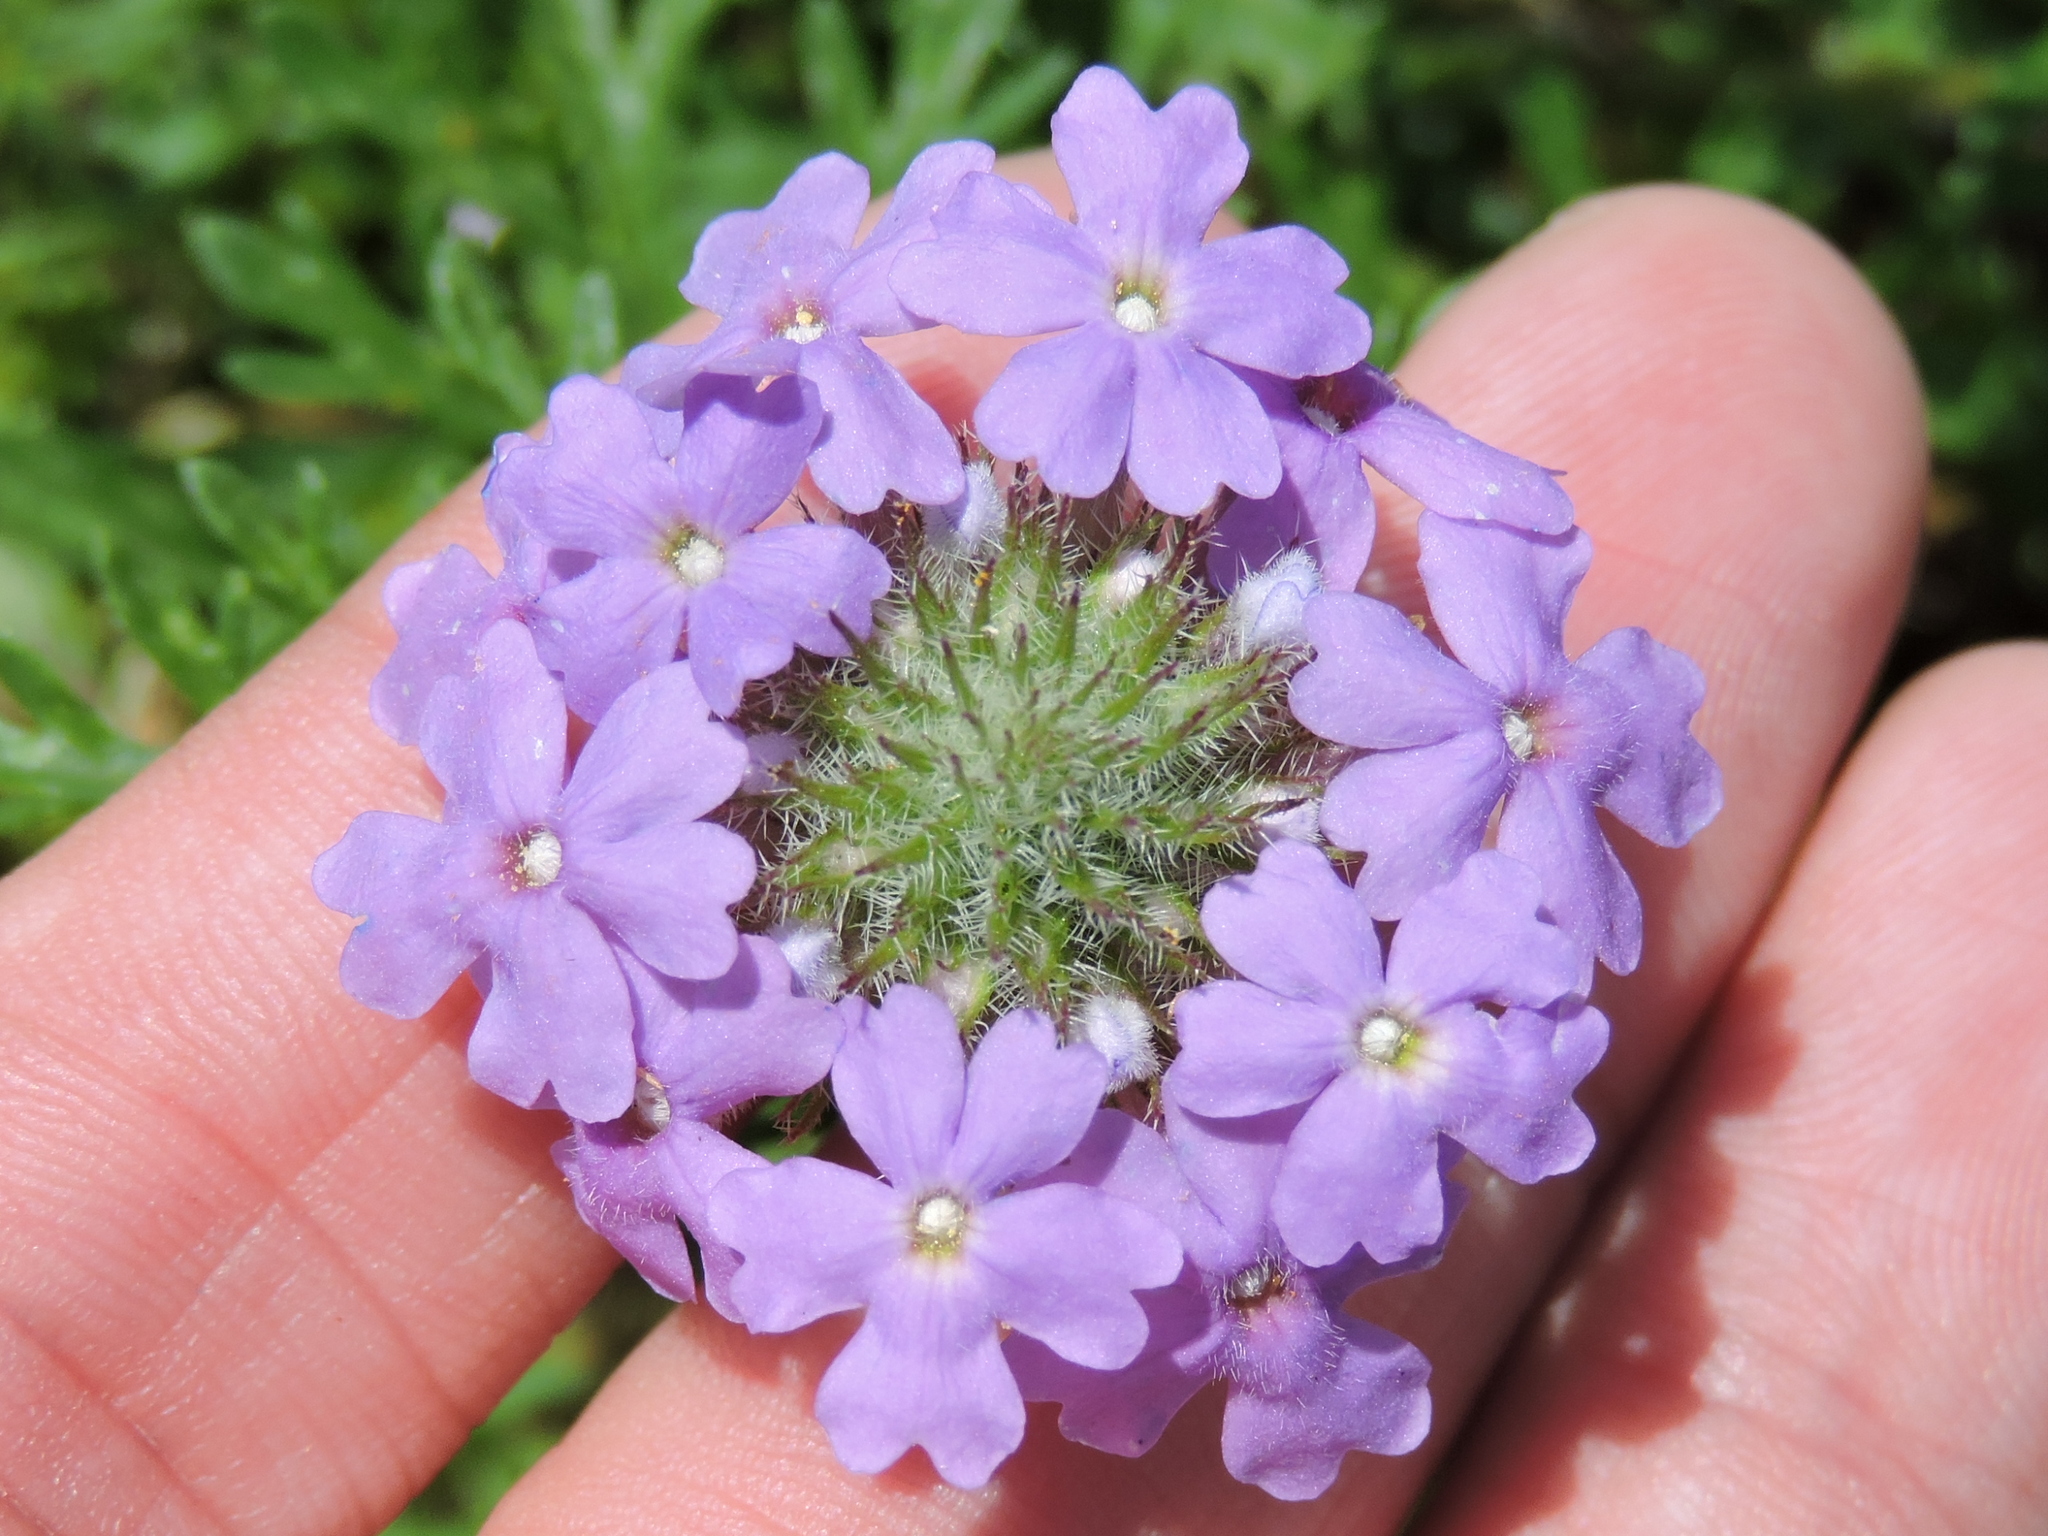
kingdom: Plantae
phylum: Tracheophyta
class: Magnoliopsida
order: Lamiales
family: Verbenaceae
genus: Verbena
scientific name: Verbena bipinnatifida
